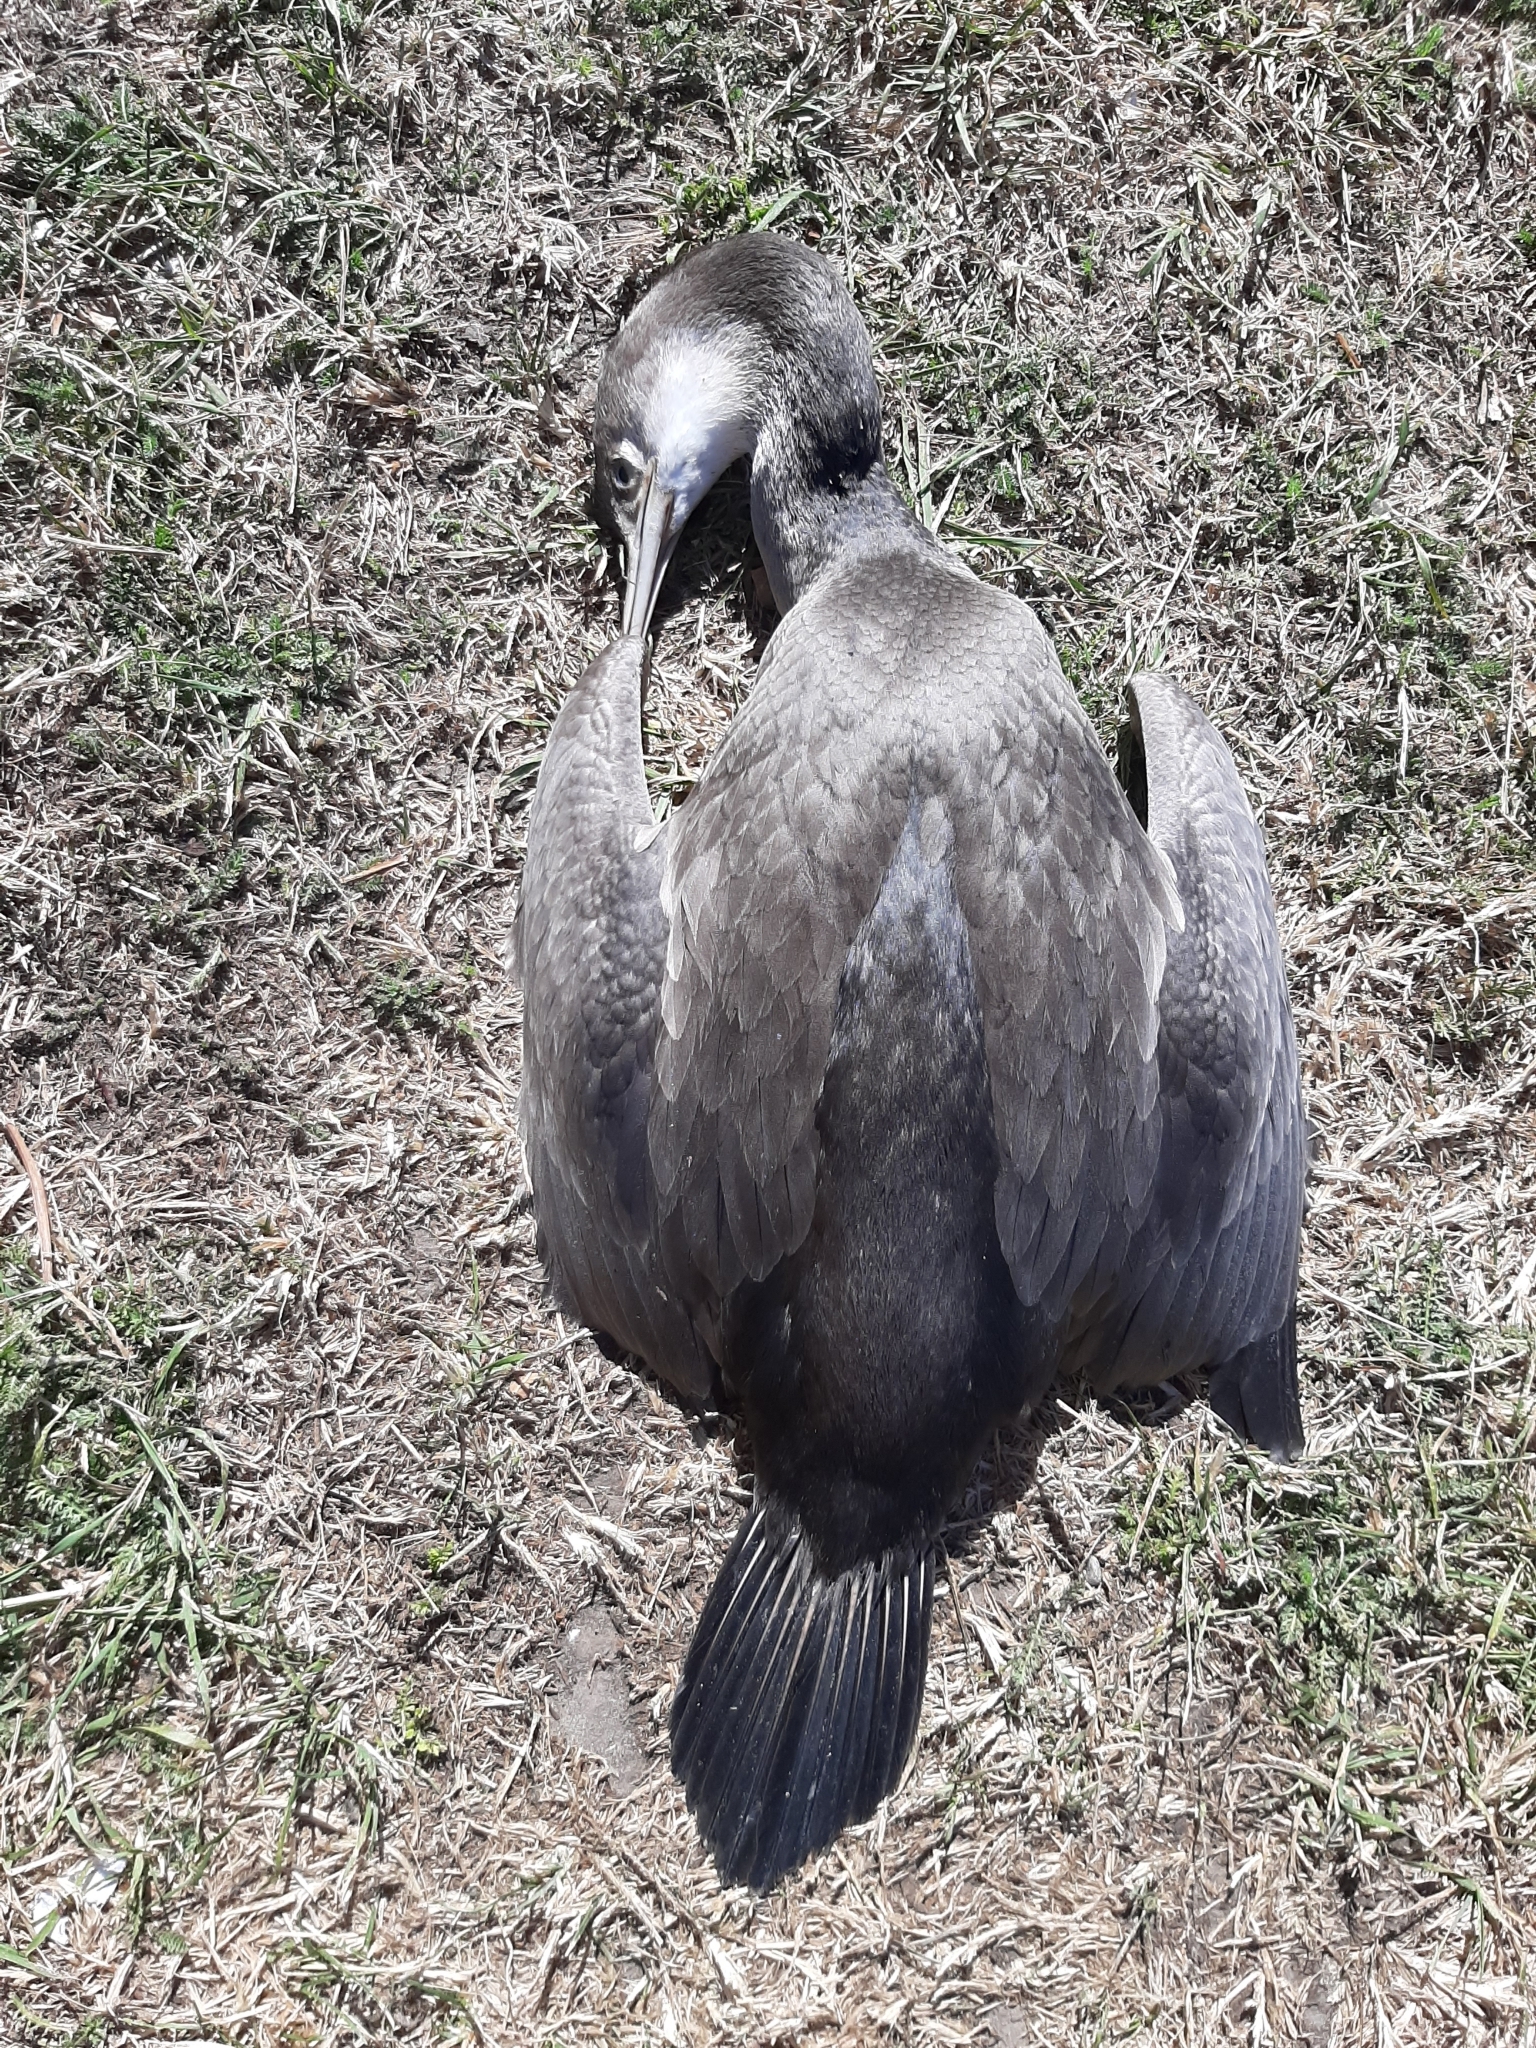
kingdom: Animalia
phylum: Chordata
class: Aves
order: Suliformes
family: Phalacrocoracidae
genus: Phalacrocorax
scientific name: Phalacrocorax punctatus
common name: Spotted shag
